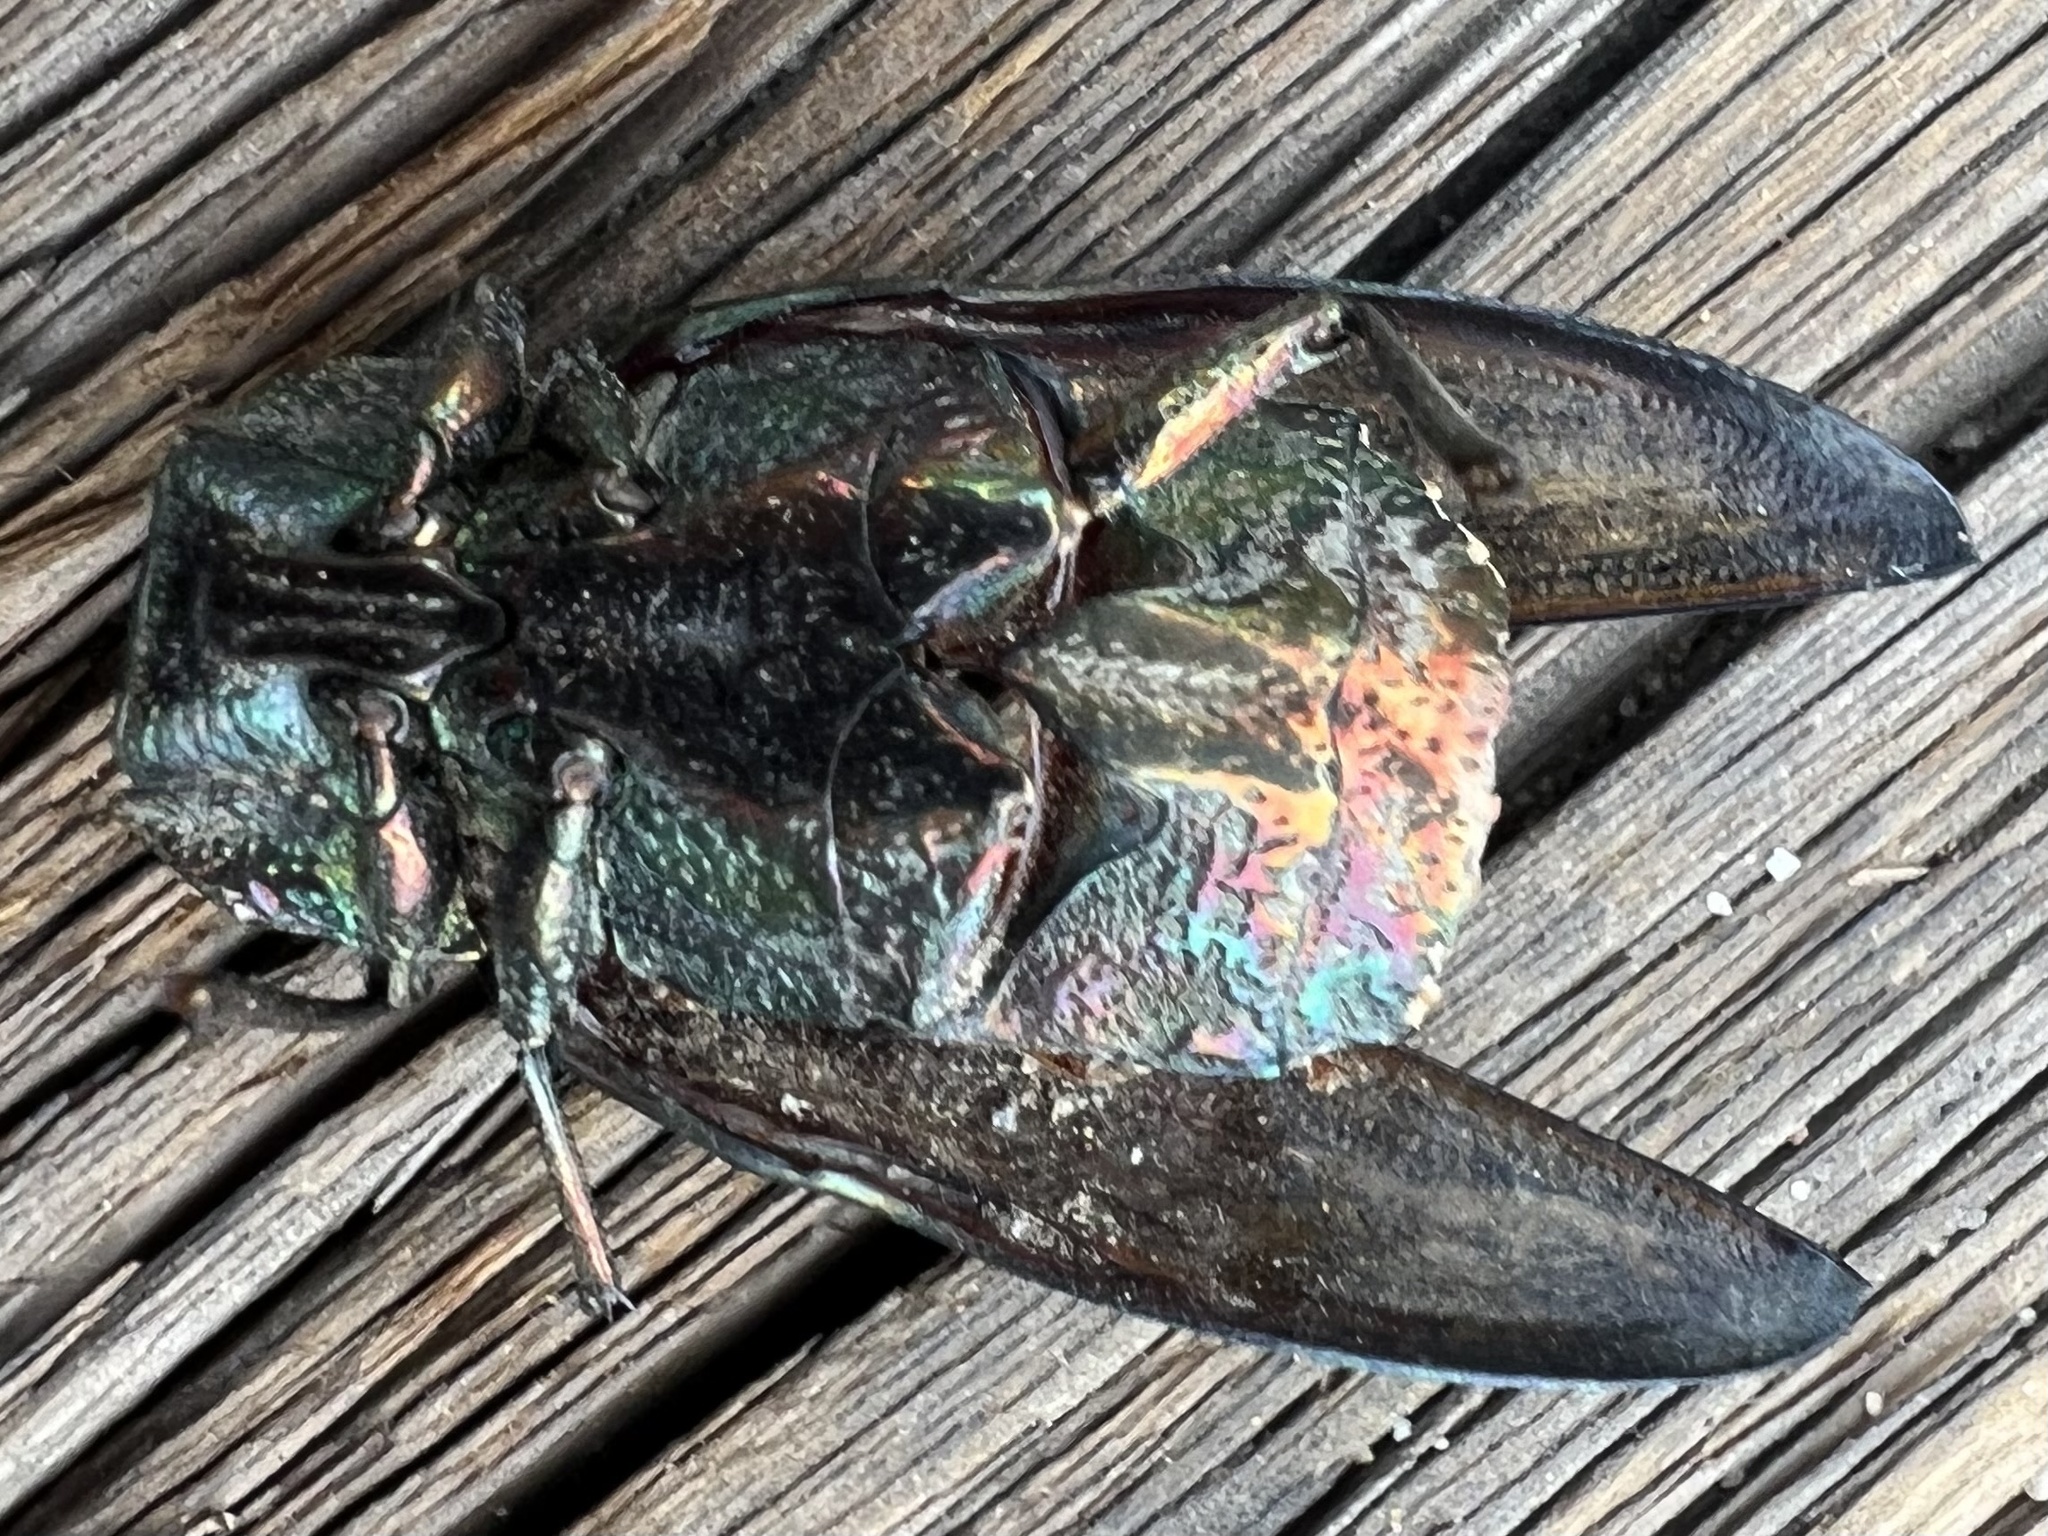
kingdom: Animalia
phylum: Arthropoda
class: Insecta
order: Coleoptera
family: Buprestidae
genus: Chalcophora
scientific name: Chalcophora massiliensis
